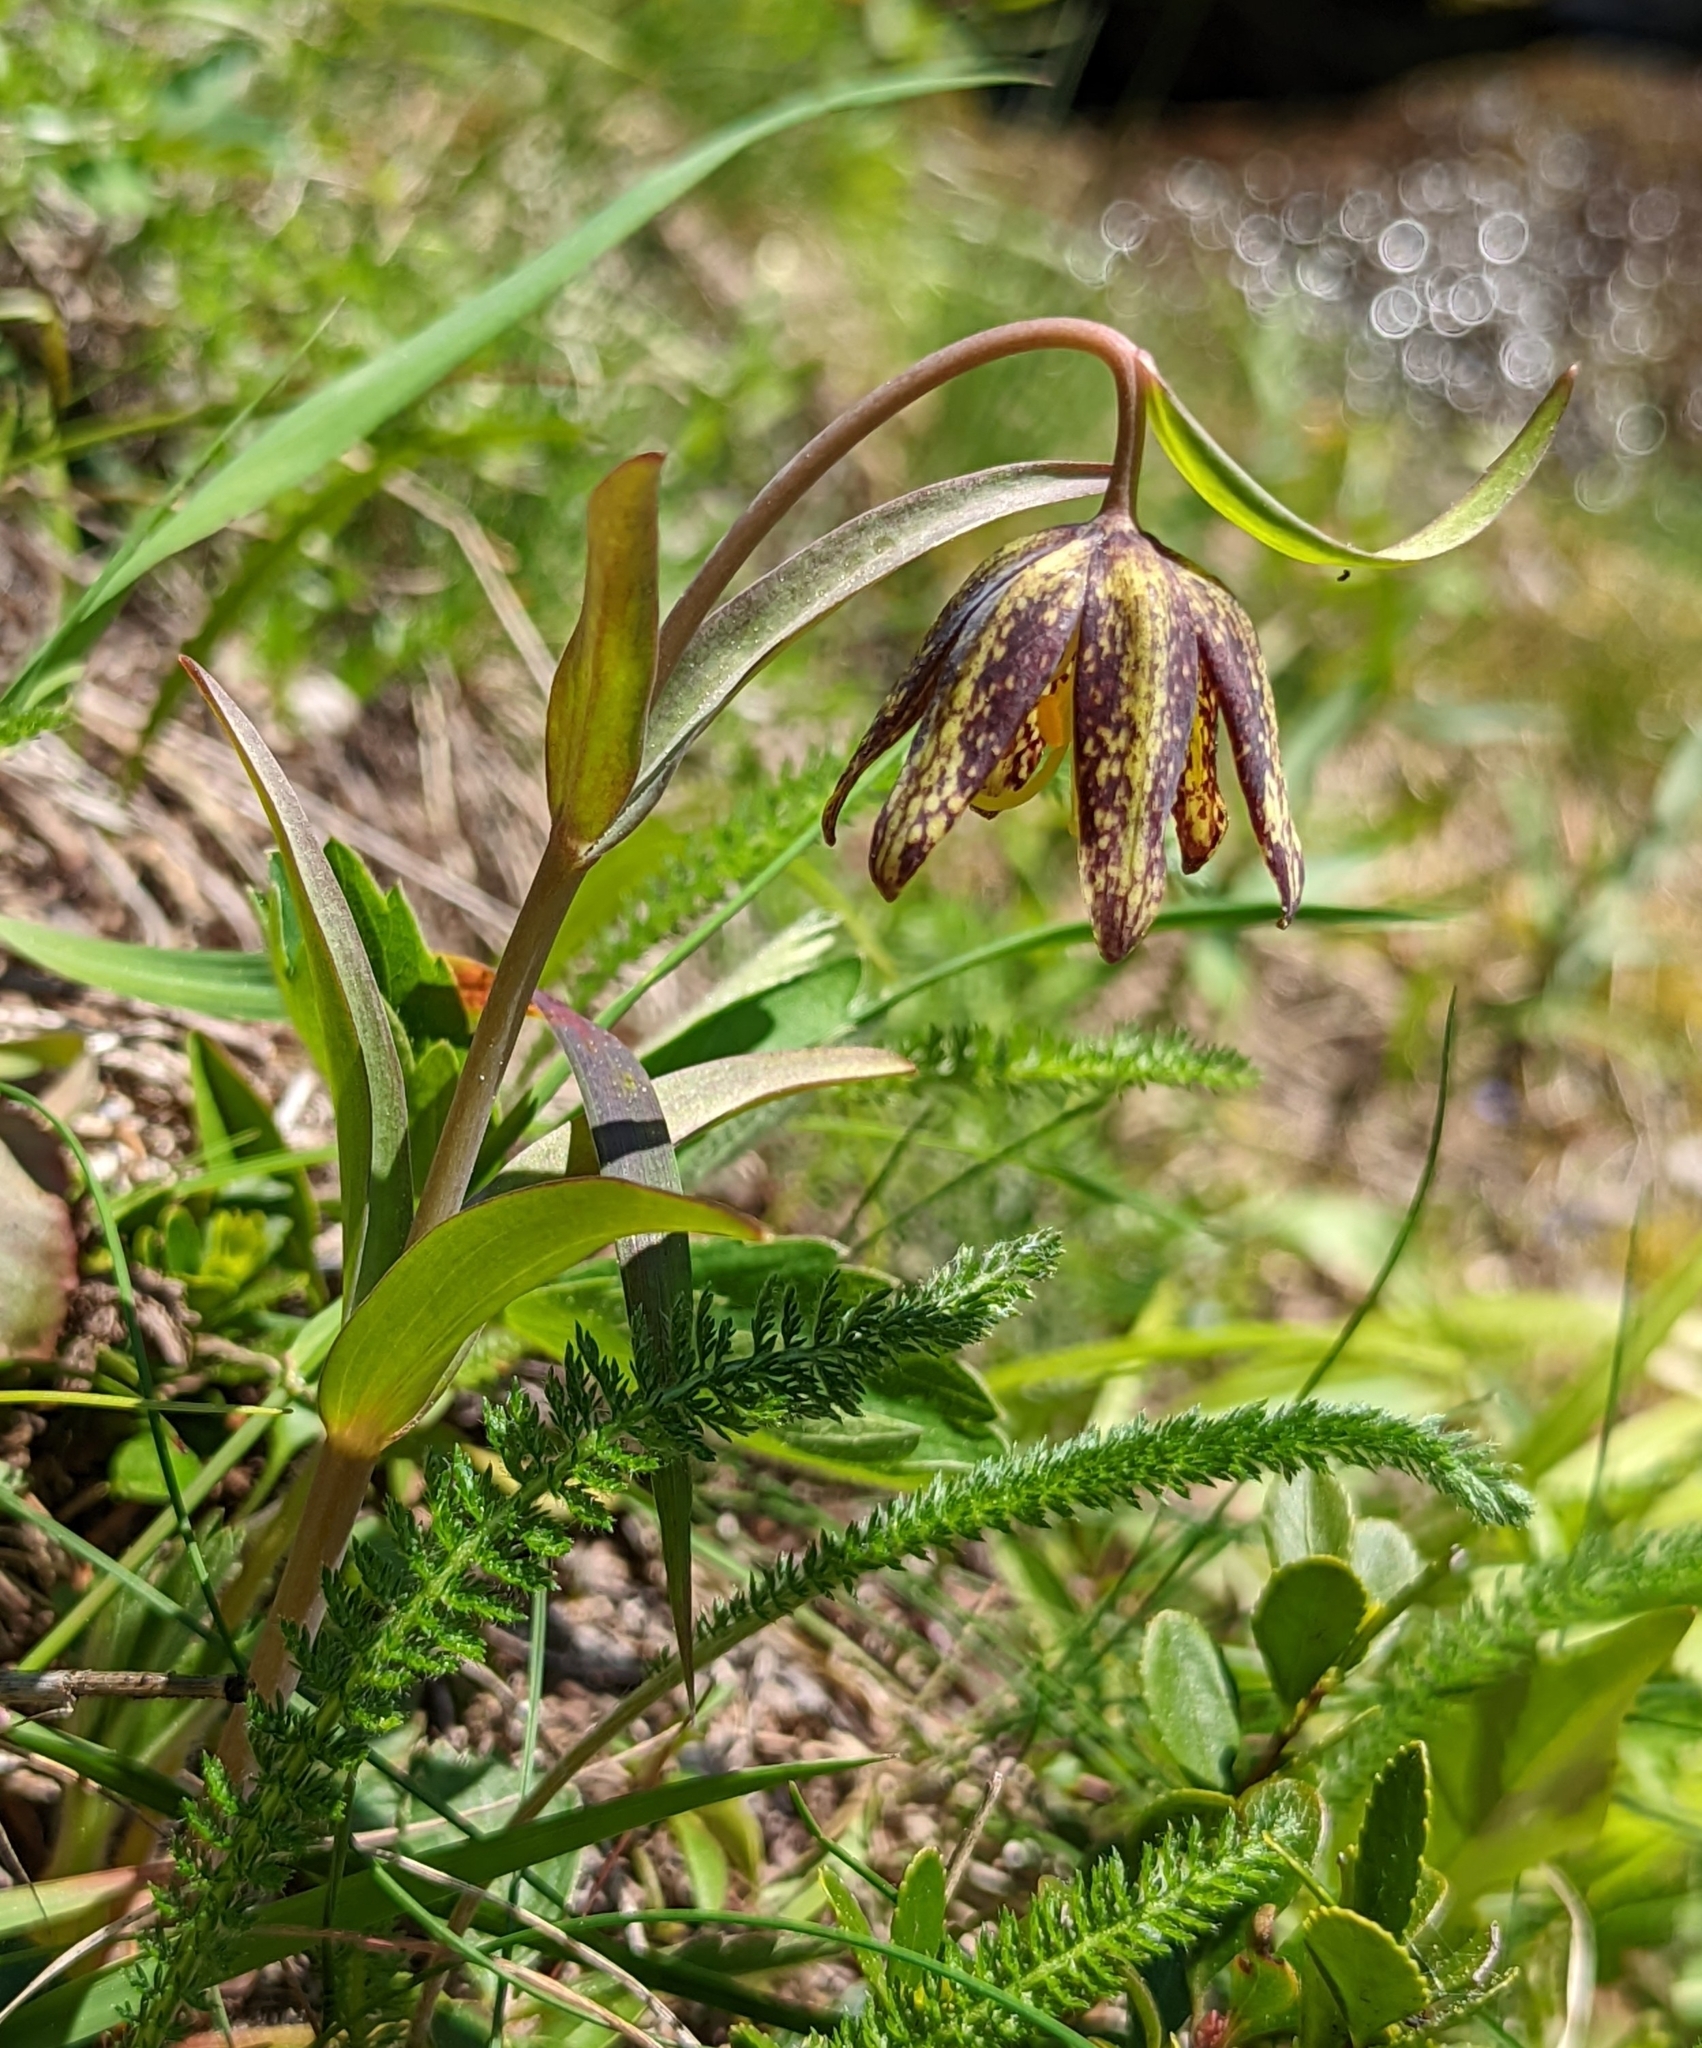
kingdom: Plantae
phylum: Tracheophyta
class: Liliopsida
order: Liliales
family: Liliaceae
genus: Fritillaria
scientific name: Fritillaria affinis
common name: Ojai fritillary
